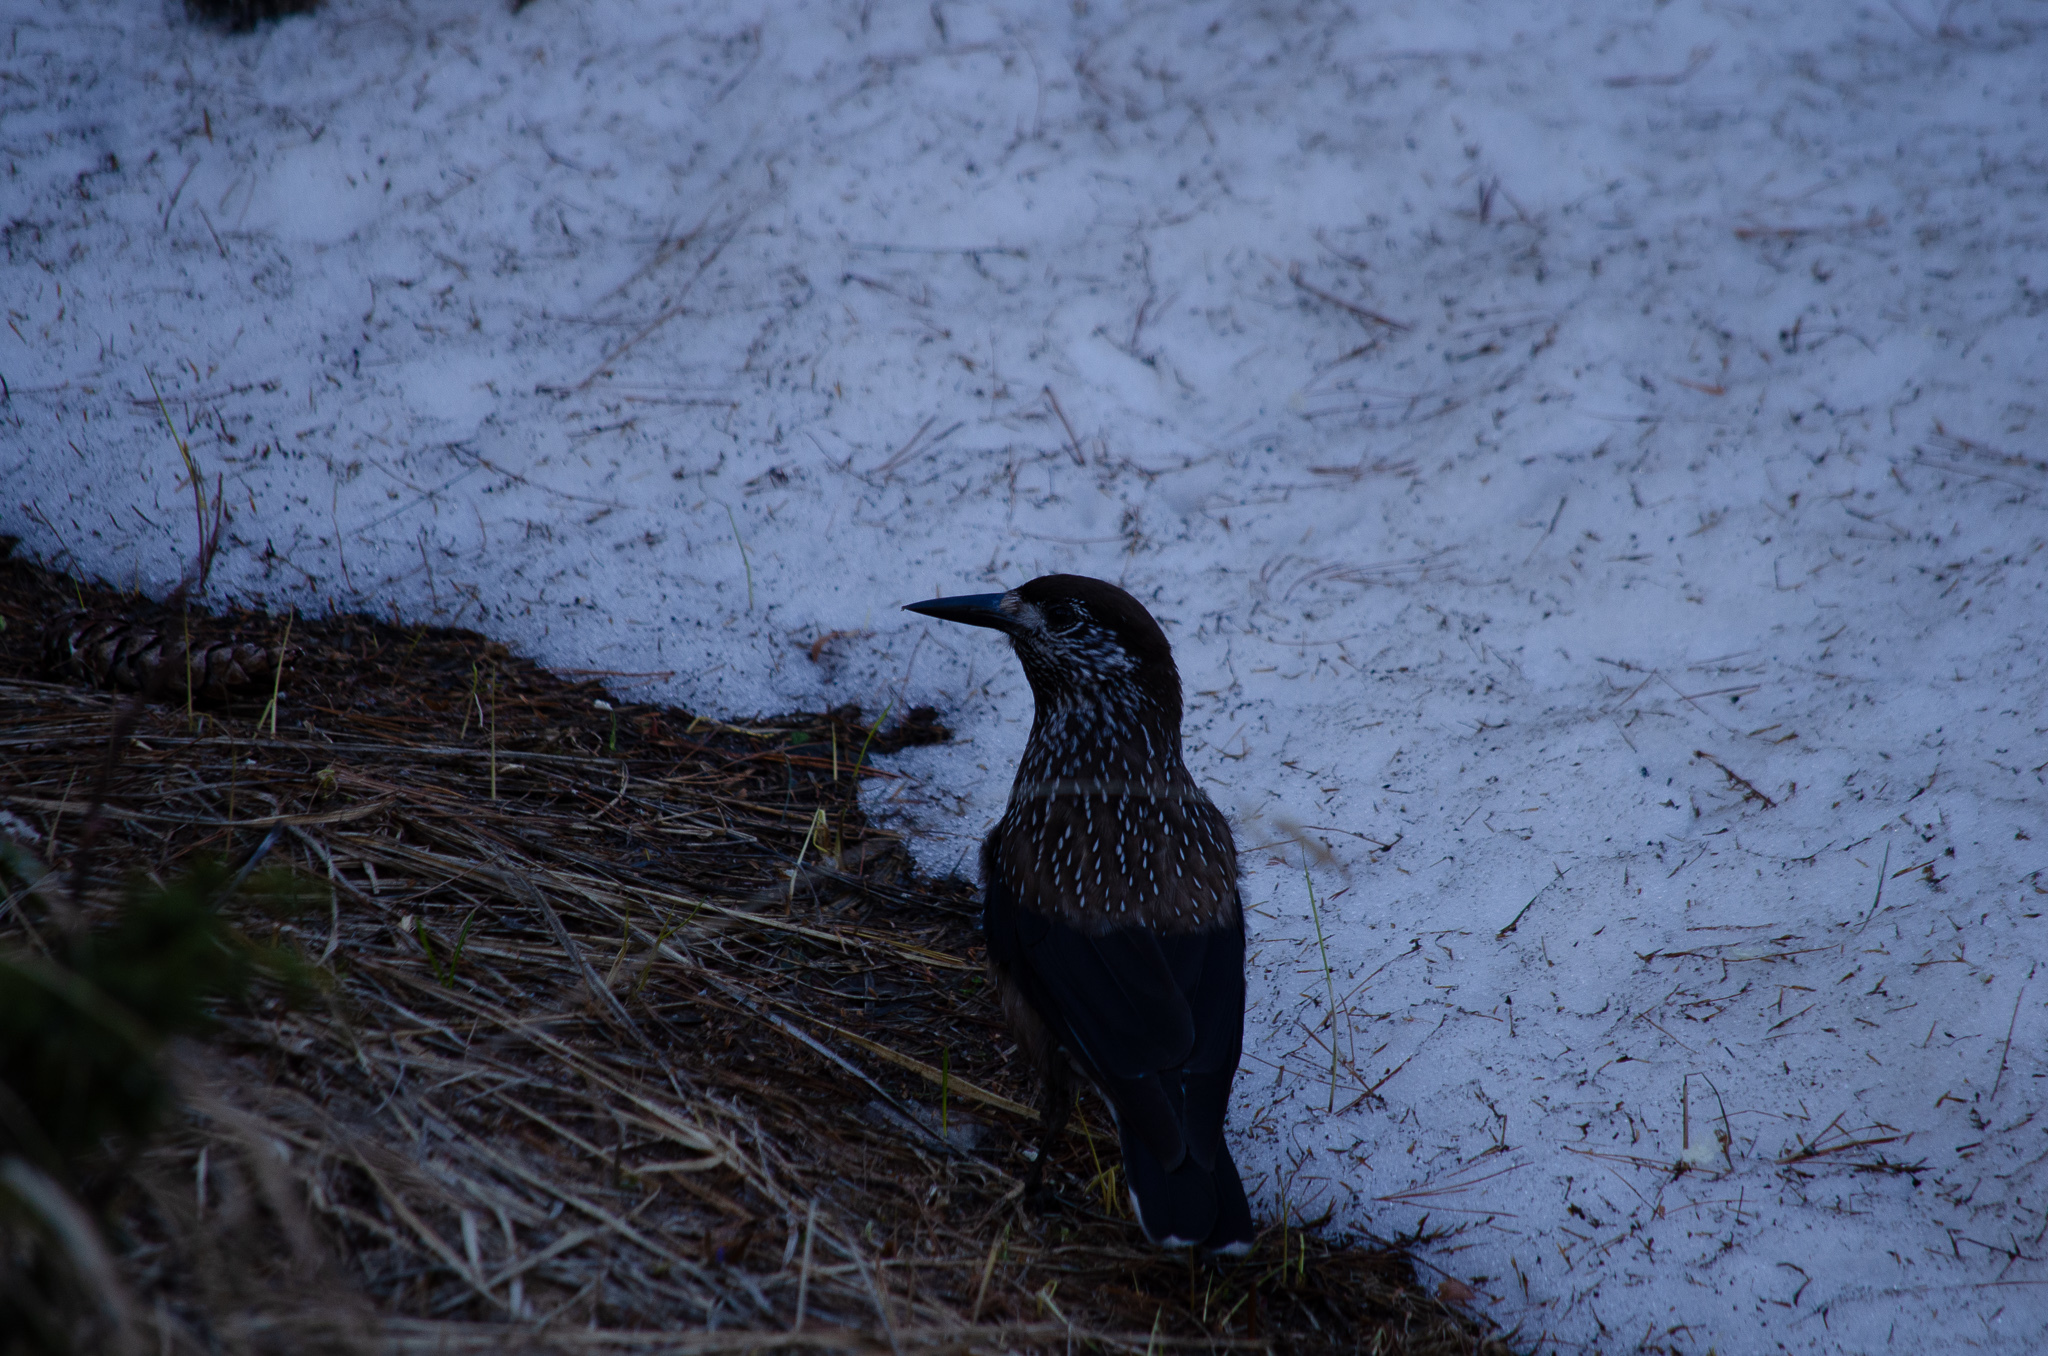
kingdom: Animalia
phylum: Chordata
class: Aves
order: Passeriformes
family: Corvidae
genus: Nucifraga
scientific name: Nucifraga caryocatactes
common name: Spotted nutcracker
